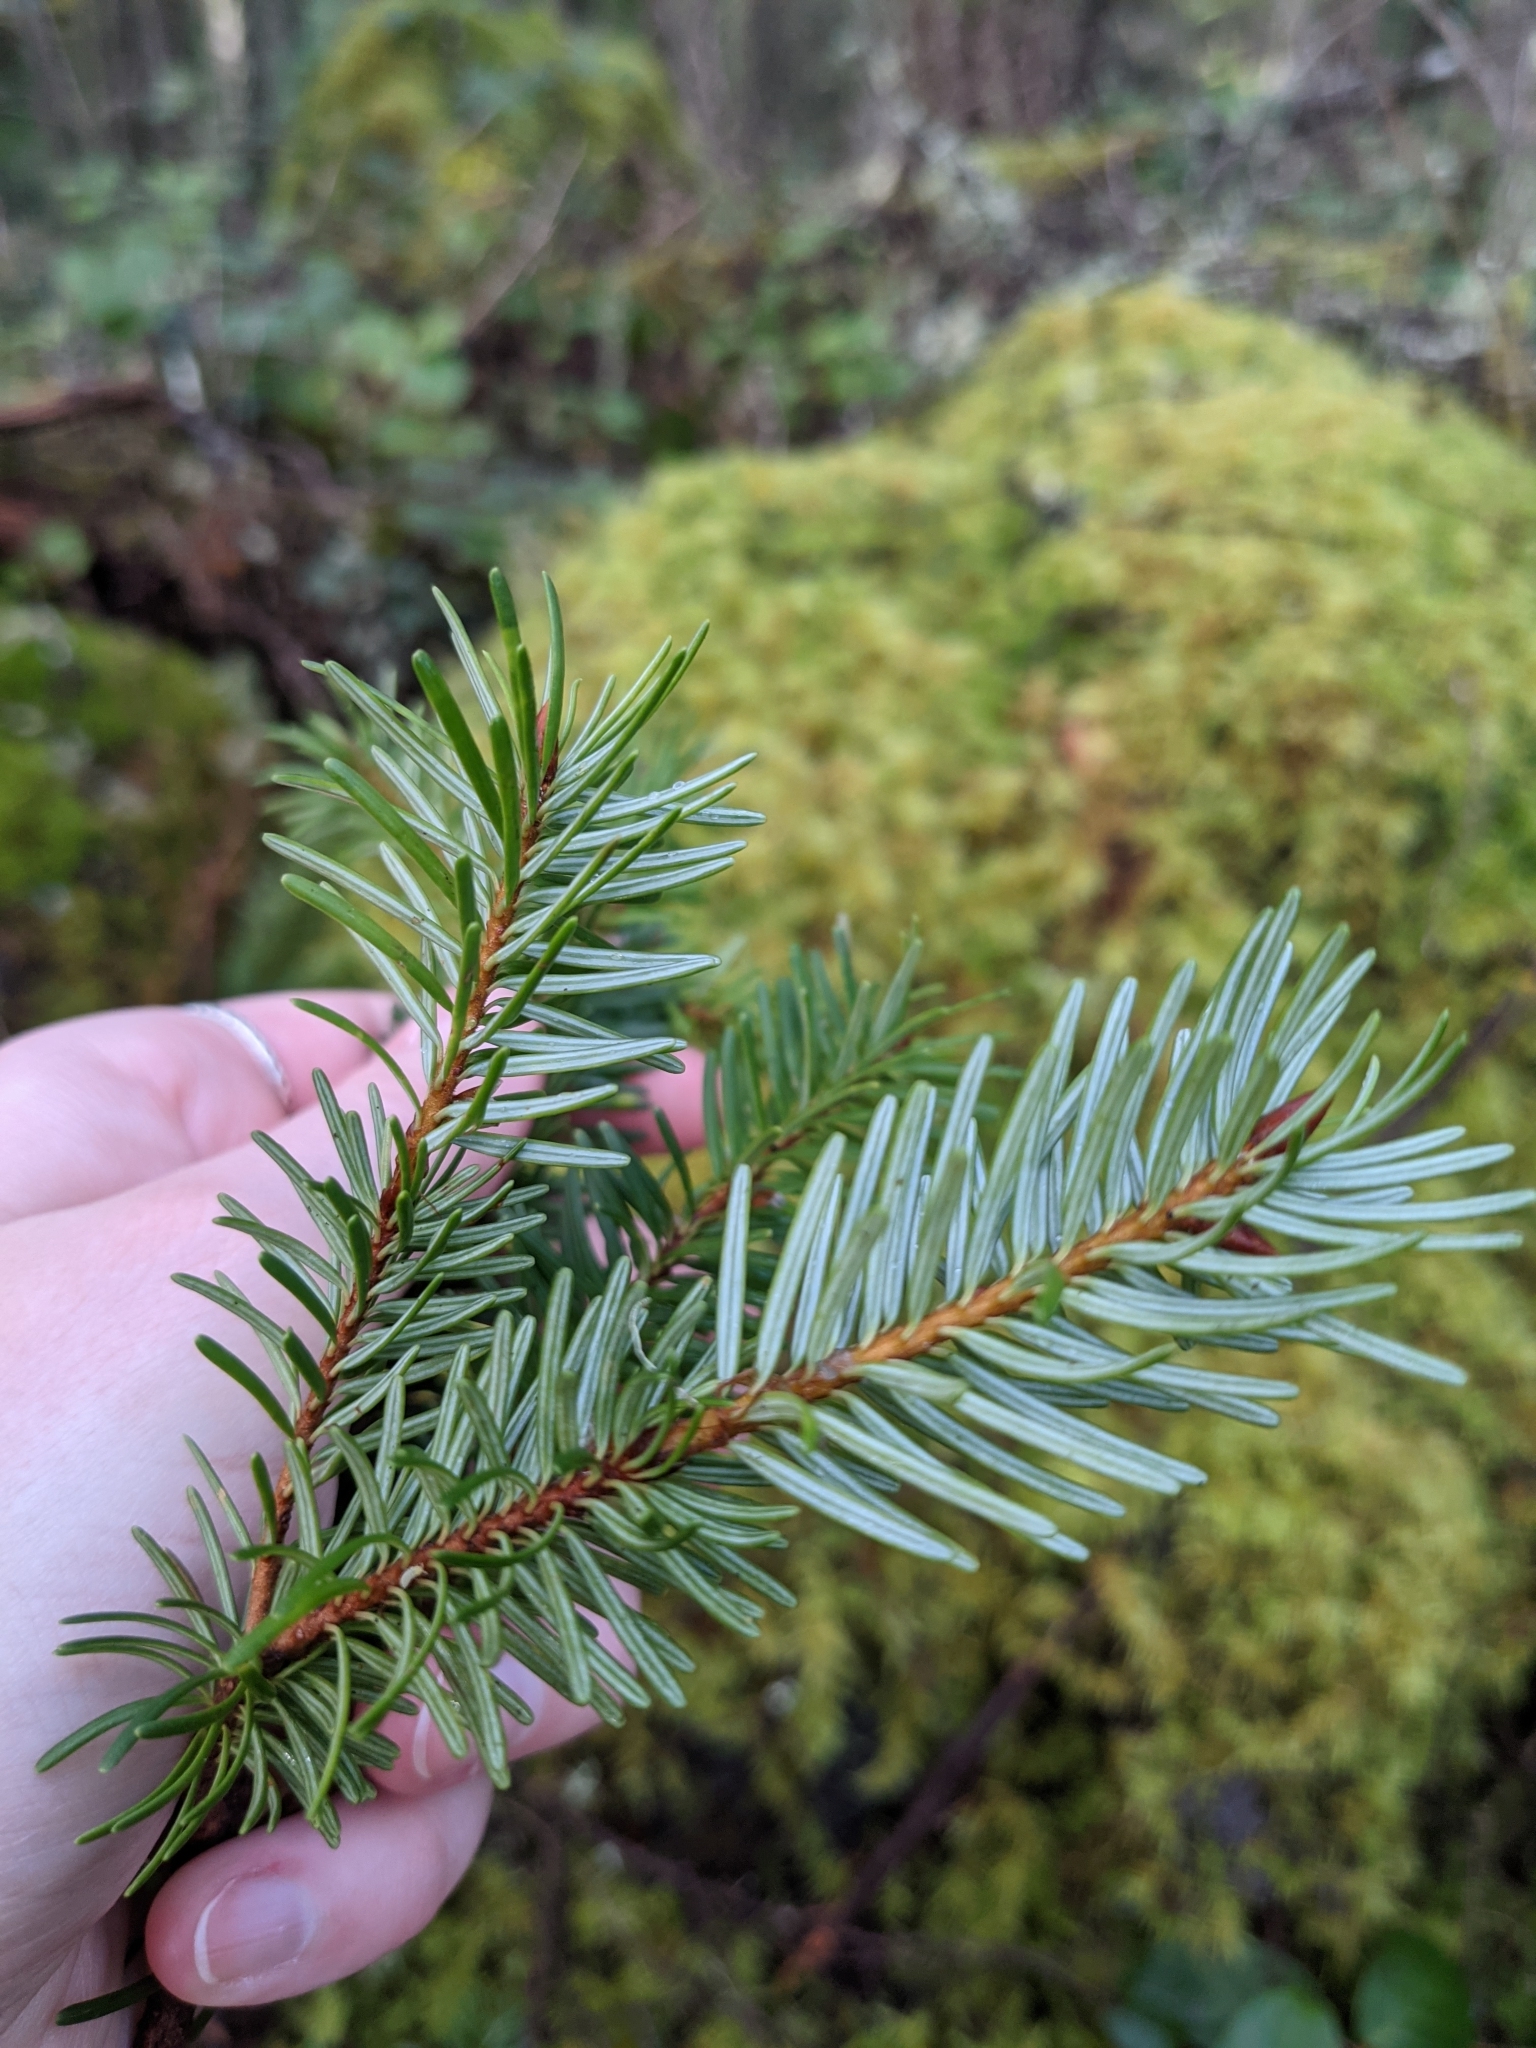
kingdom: Plantae
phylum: Tracheophyta
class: Pinopsida
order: Pinales
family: Pinaceae
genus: Pseudotsuga
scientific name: Pseudotsuga menziesii
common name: Douglas fir
